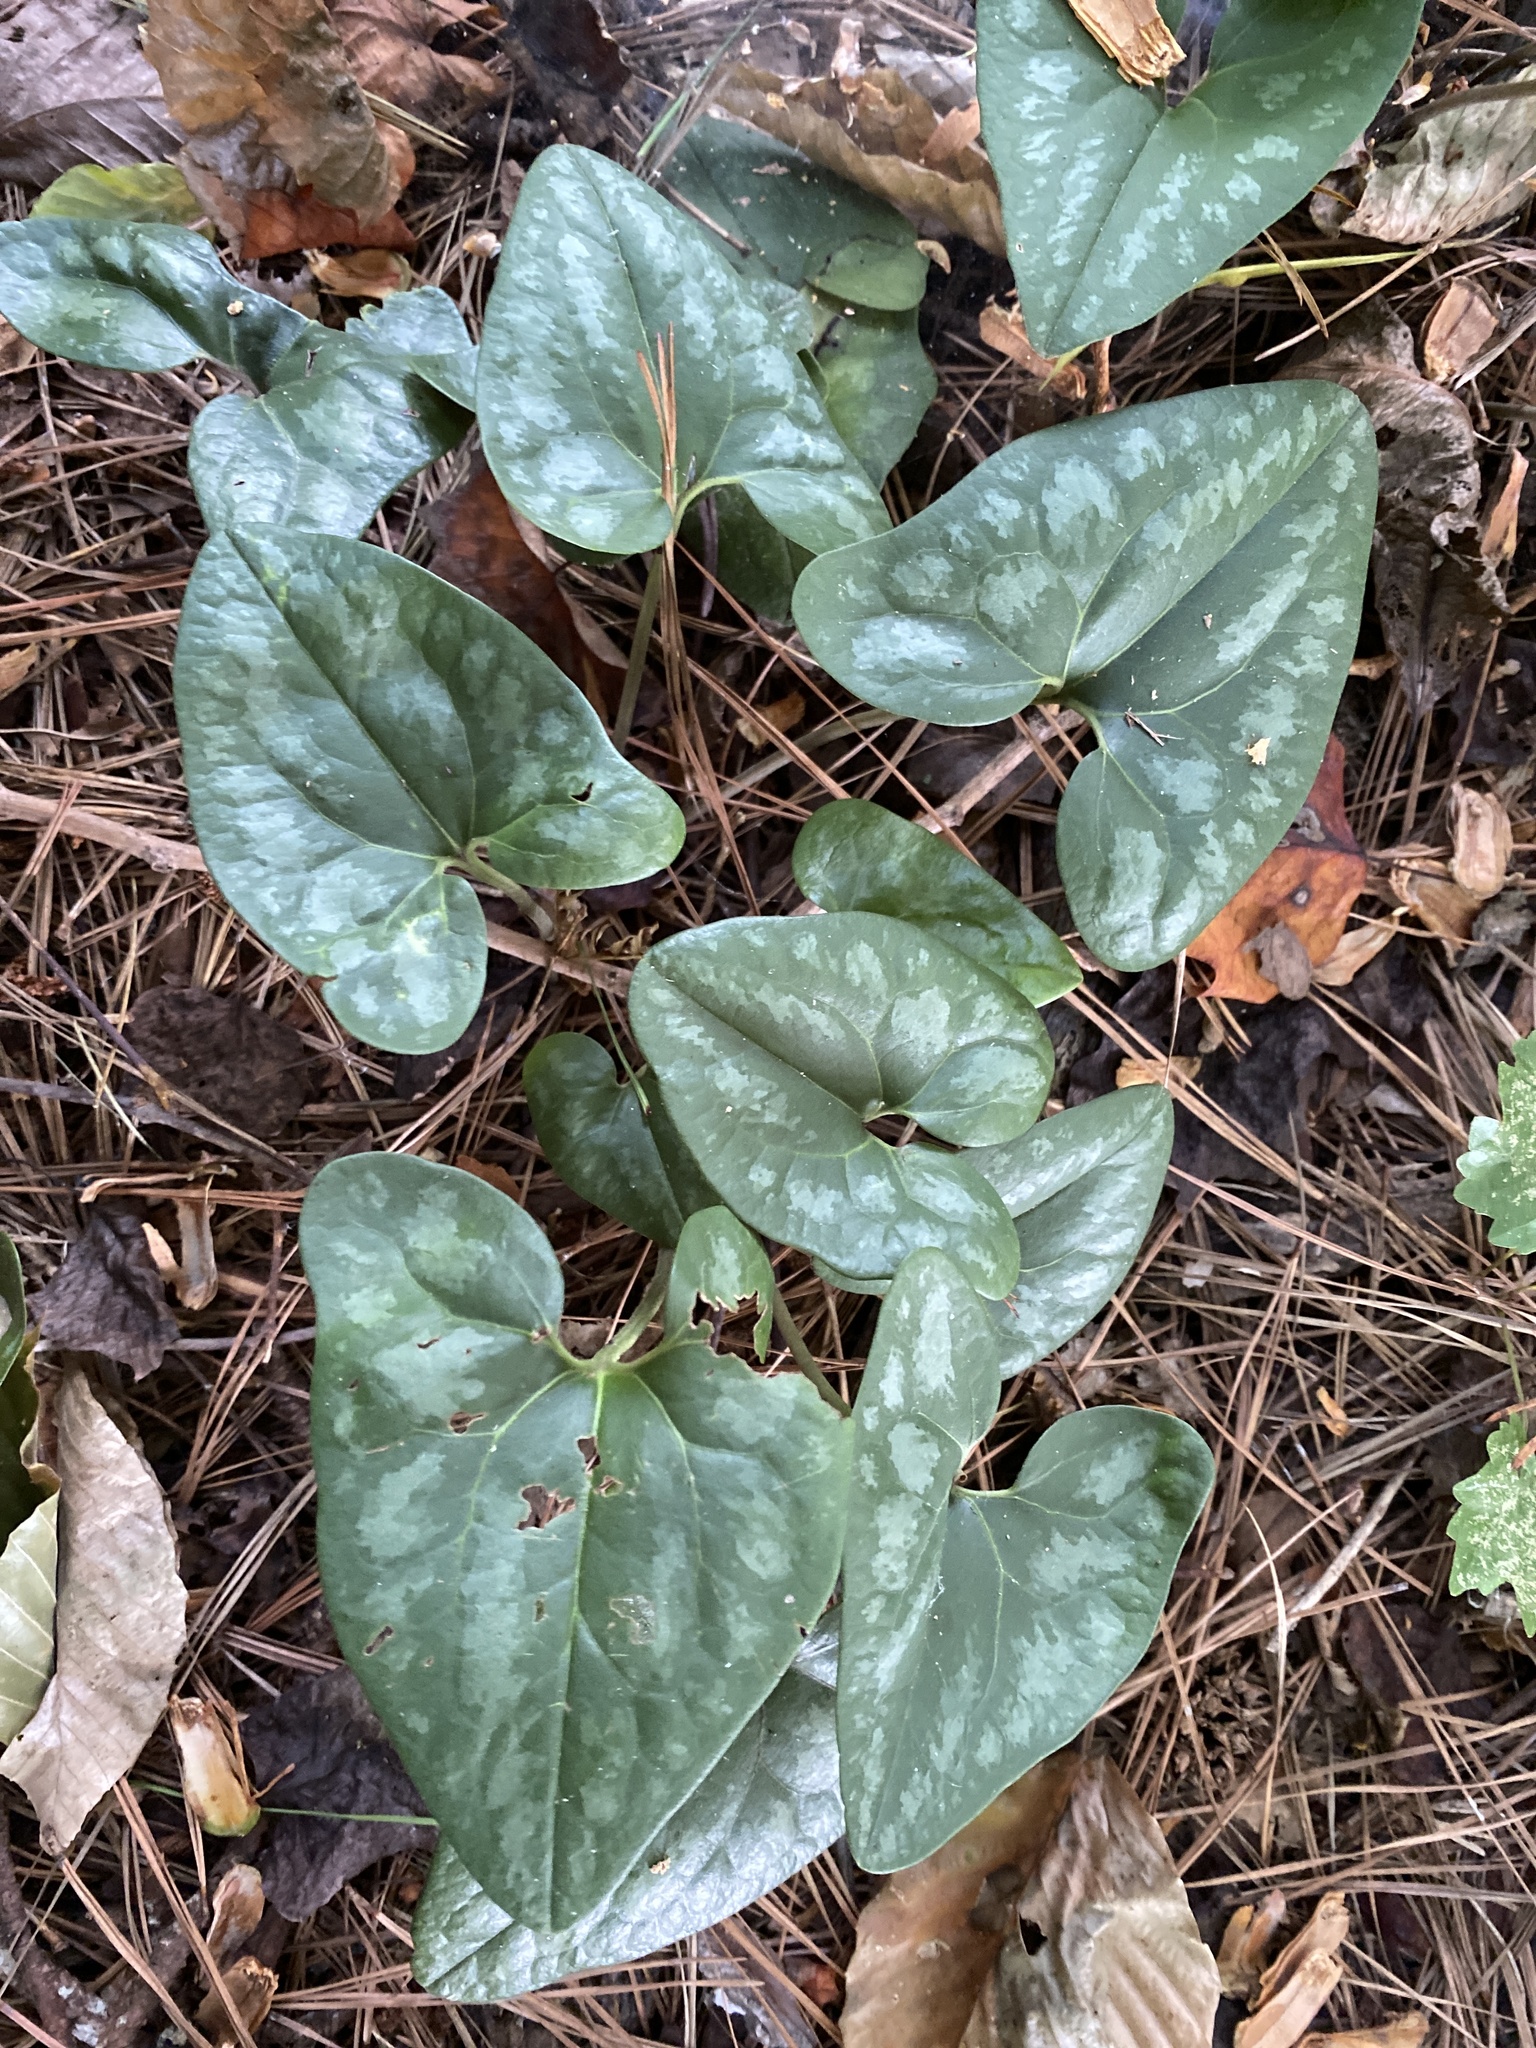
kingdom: Plantae
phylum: Tracheophyta
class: Magnoliopsida
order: Piperales
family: Aristolochiaceae
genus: Hexastylis
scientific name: Hexastylis arifolia
